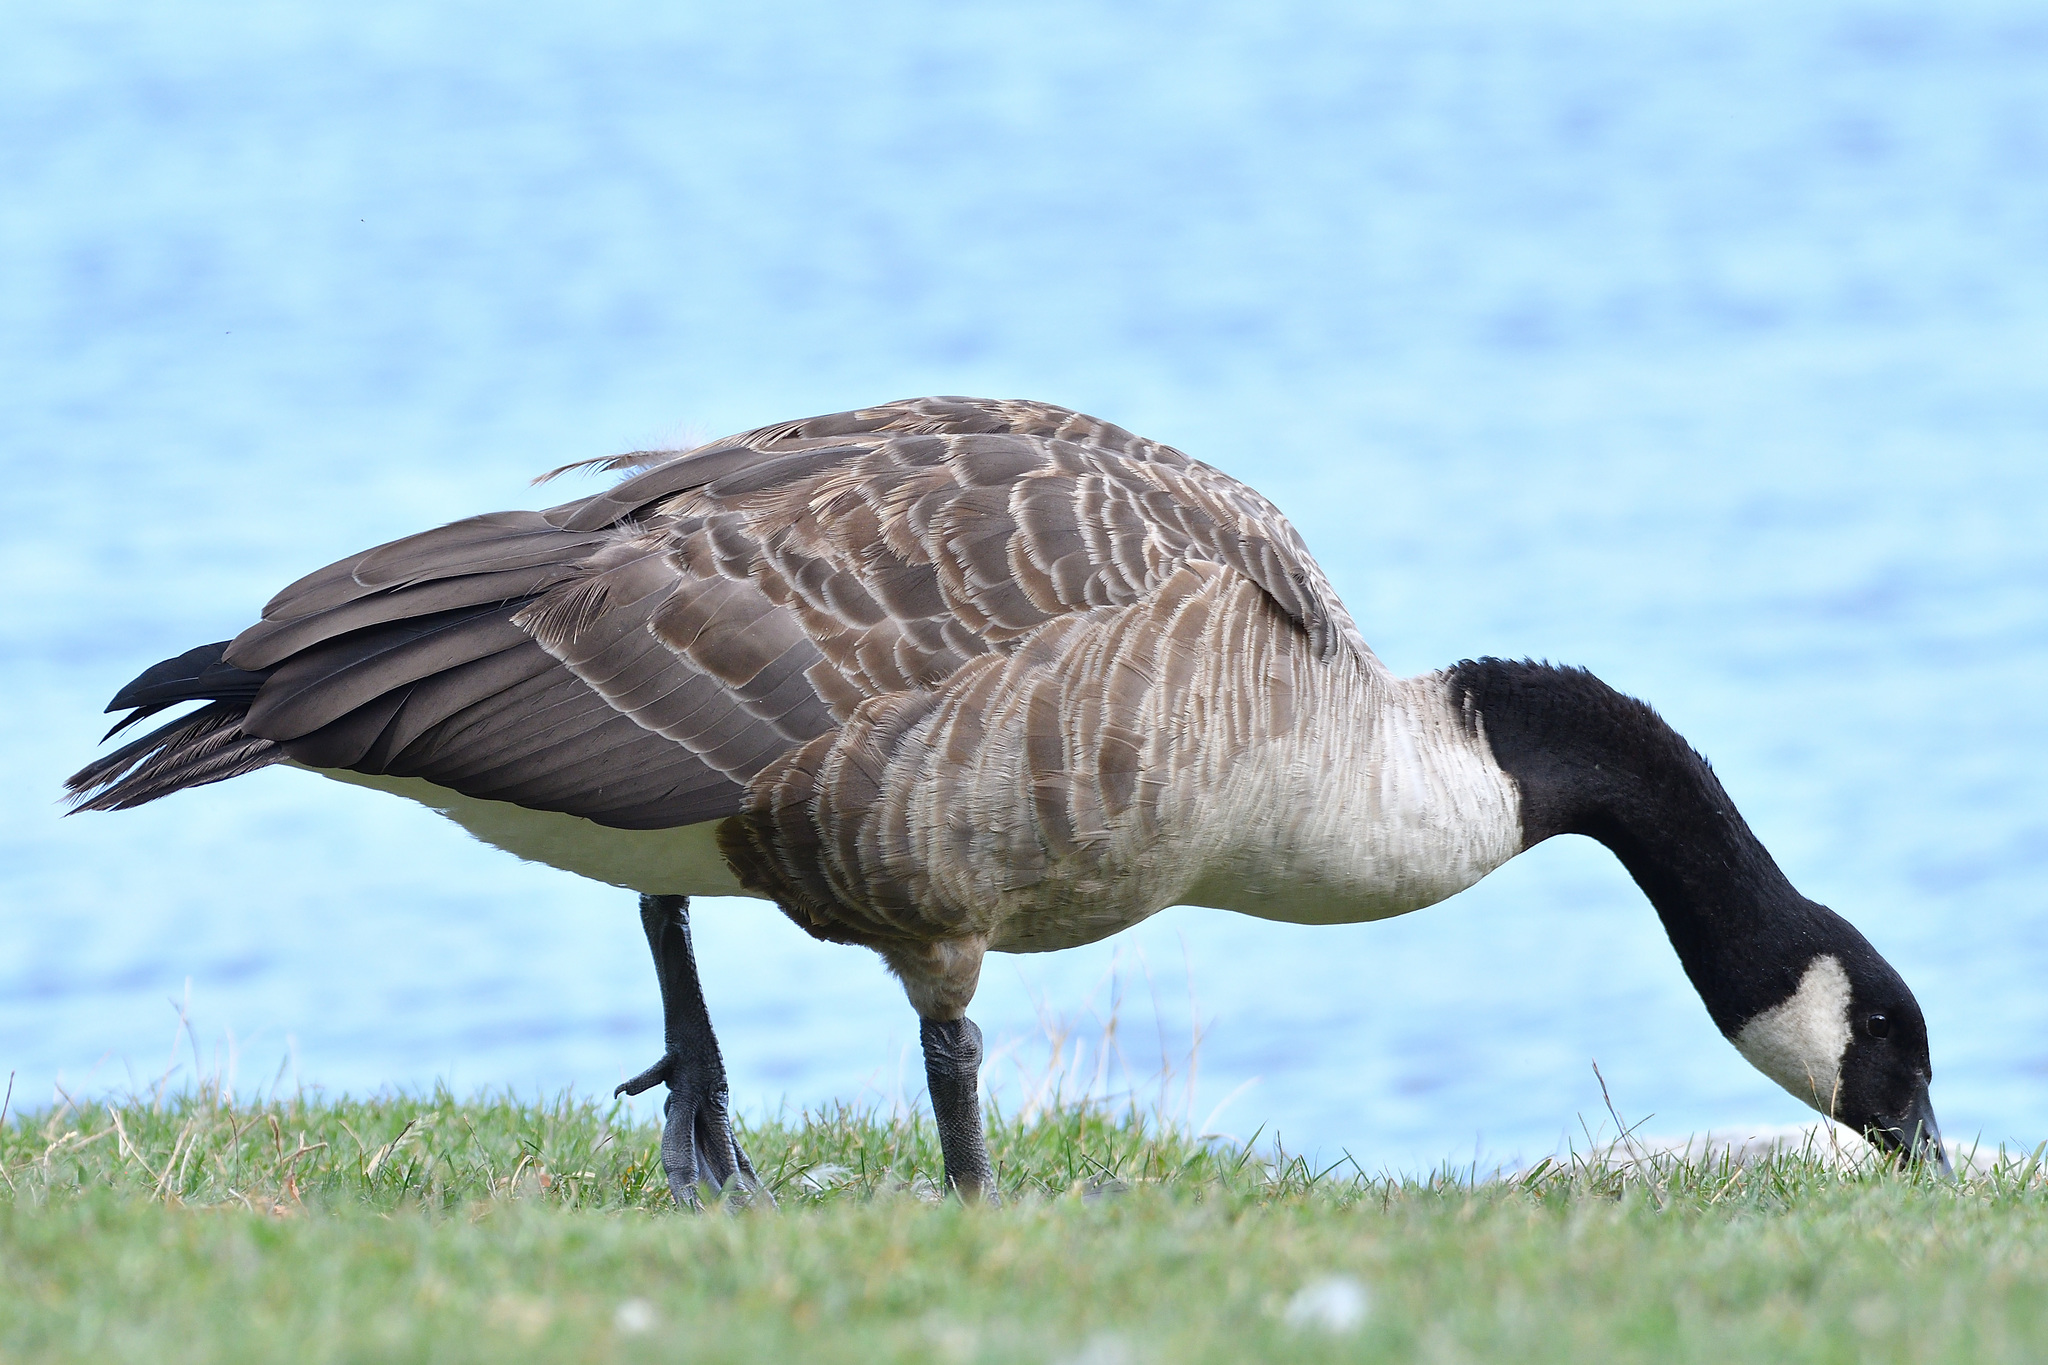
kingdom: Animalia
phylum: Chordata
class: Aves
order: Anseriformes
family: Anatidae
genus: Branta
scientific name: Branta canadensis
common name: Canada goose
